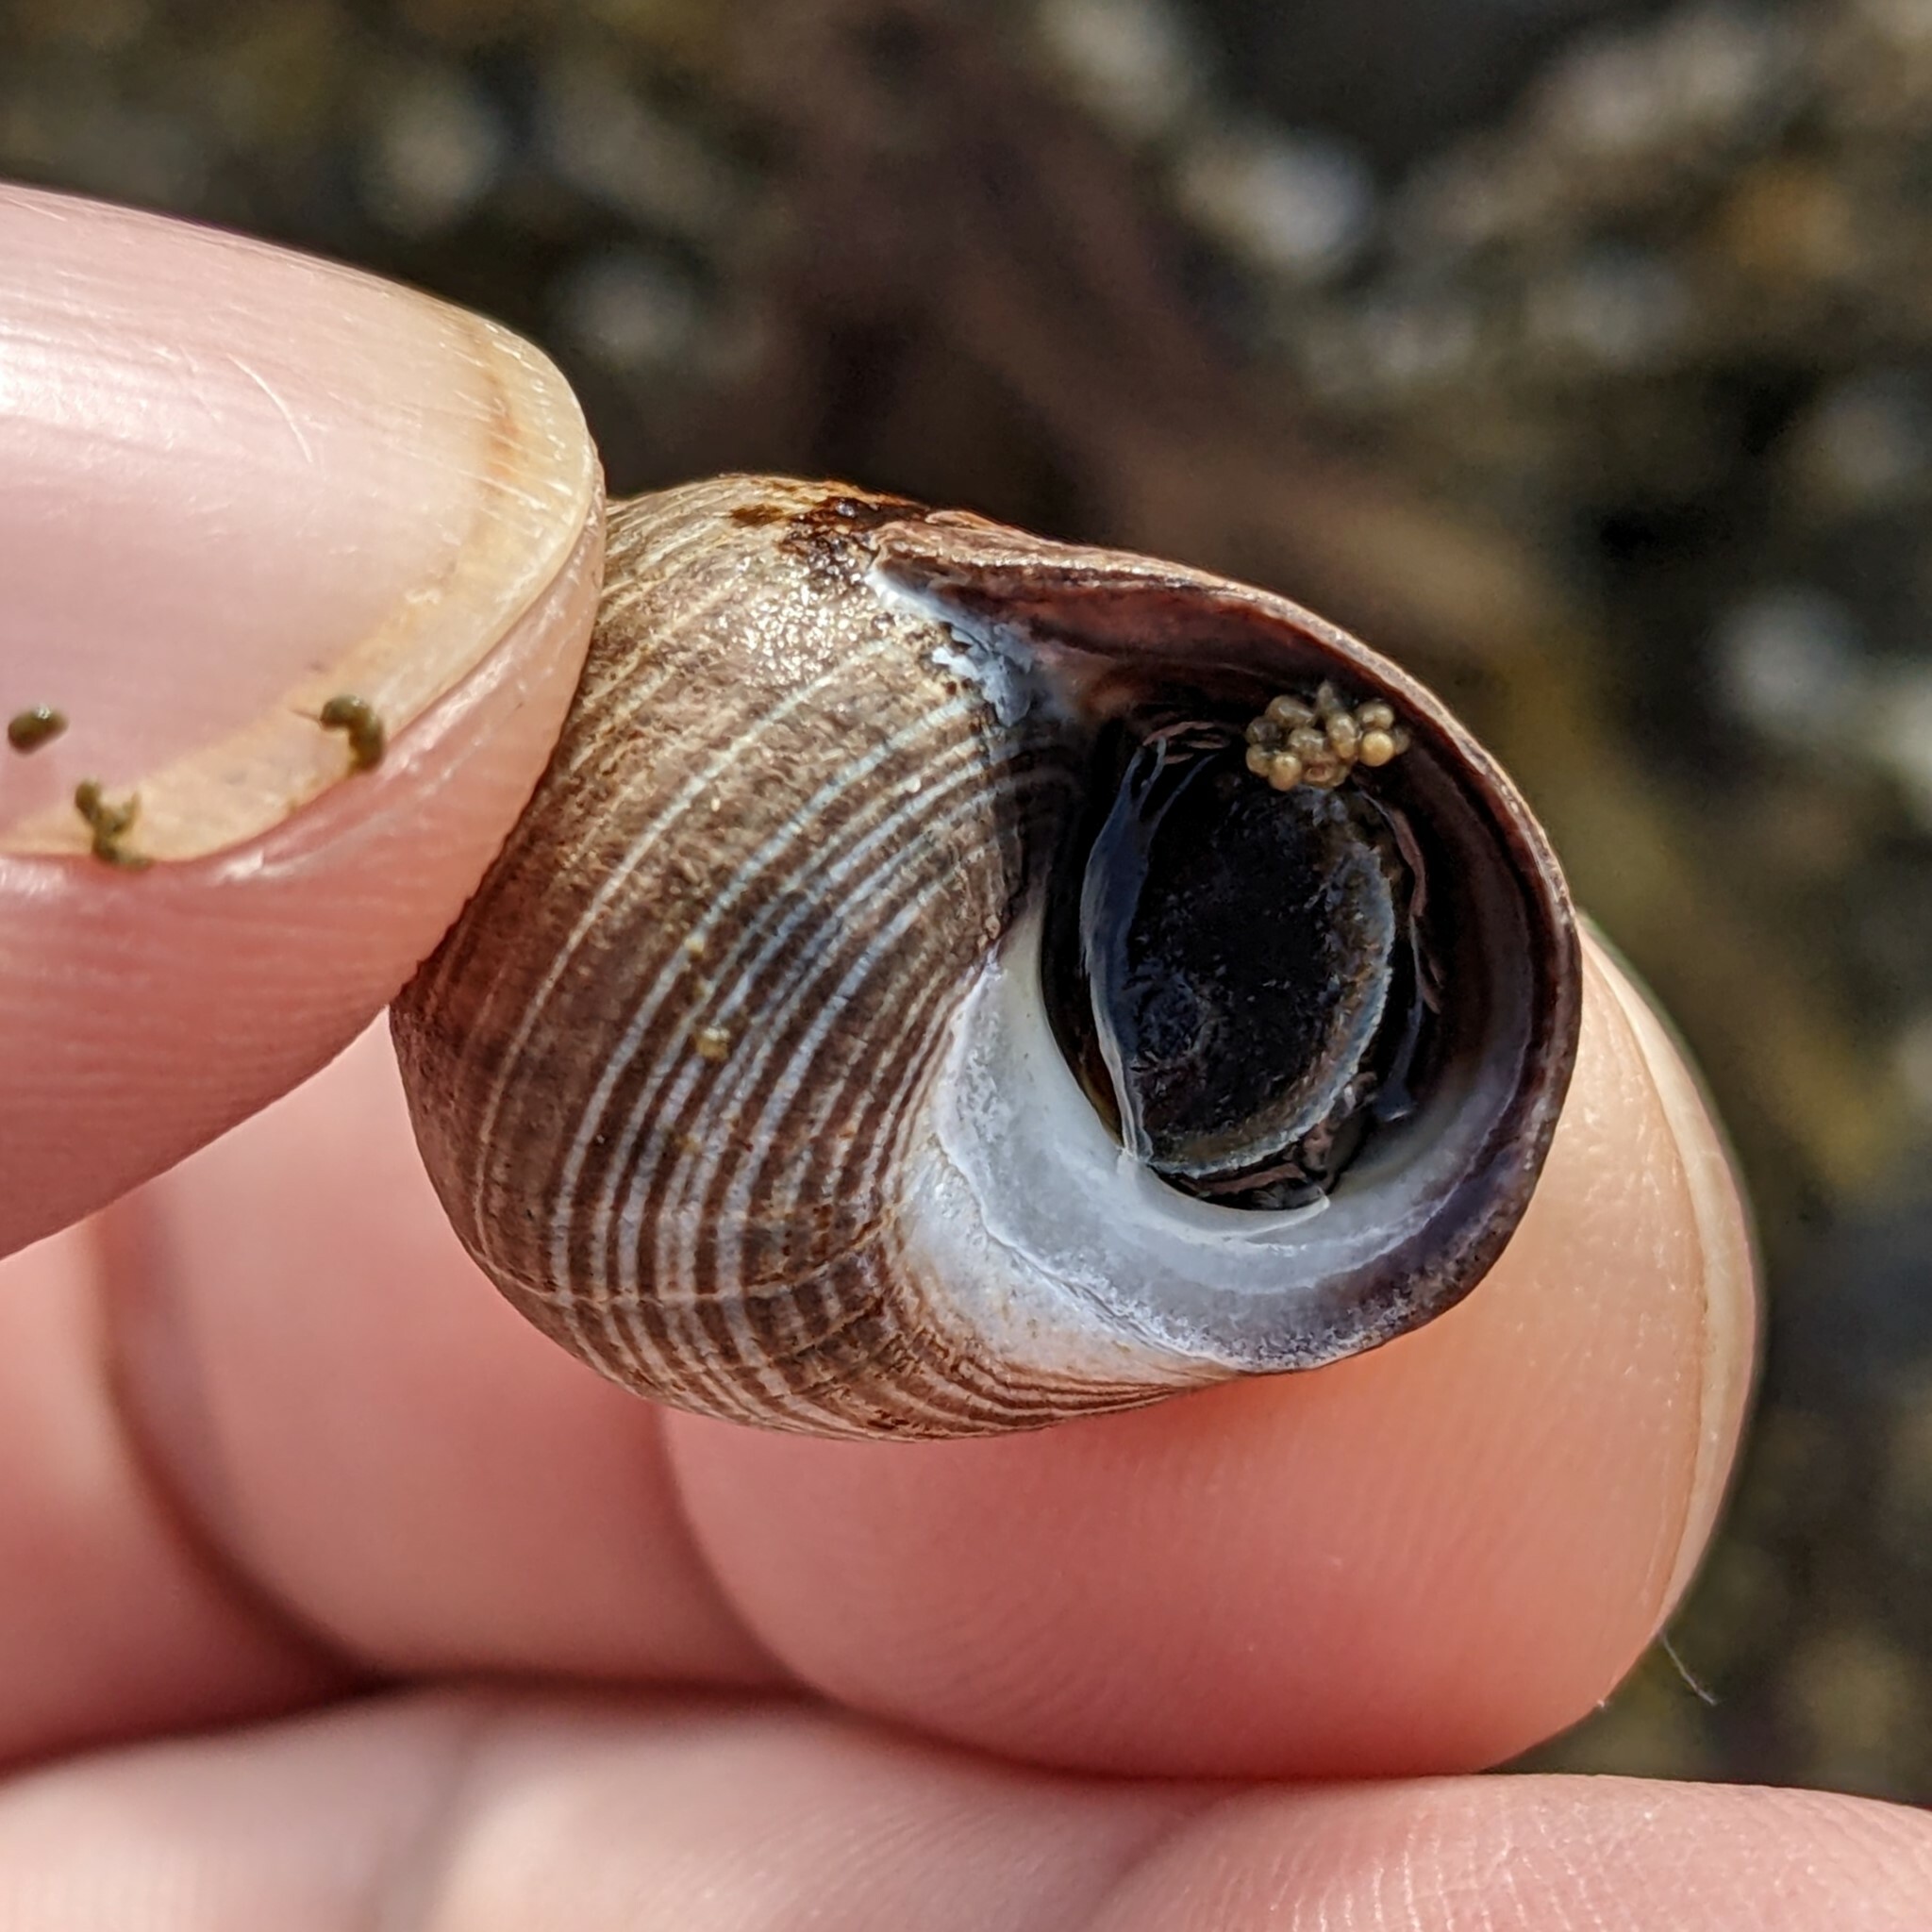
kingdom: Animalia
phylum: Mollusca
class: Gastropoda
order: Littorinimorpha
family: Littorinidae
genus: Littorina
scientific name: Littorina littorea
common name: Common periwinkle
